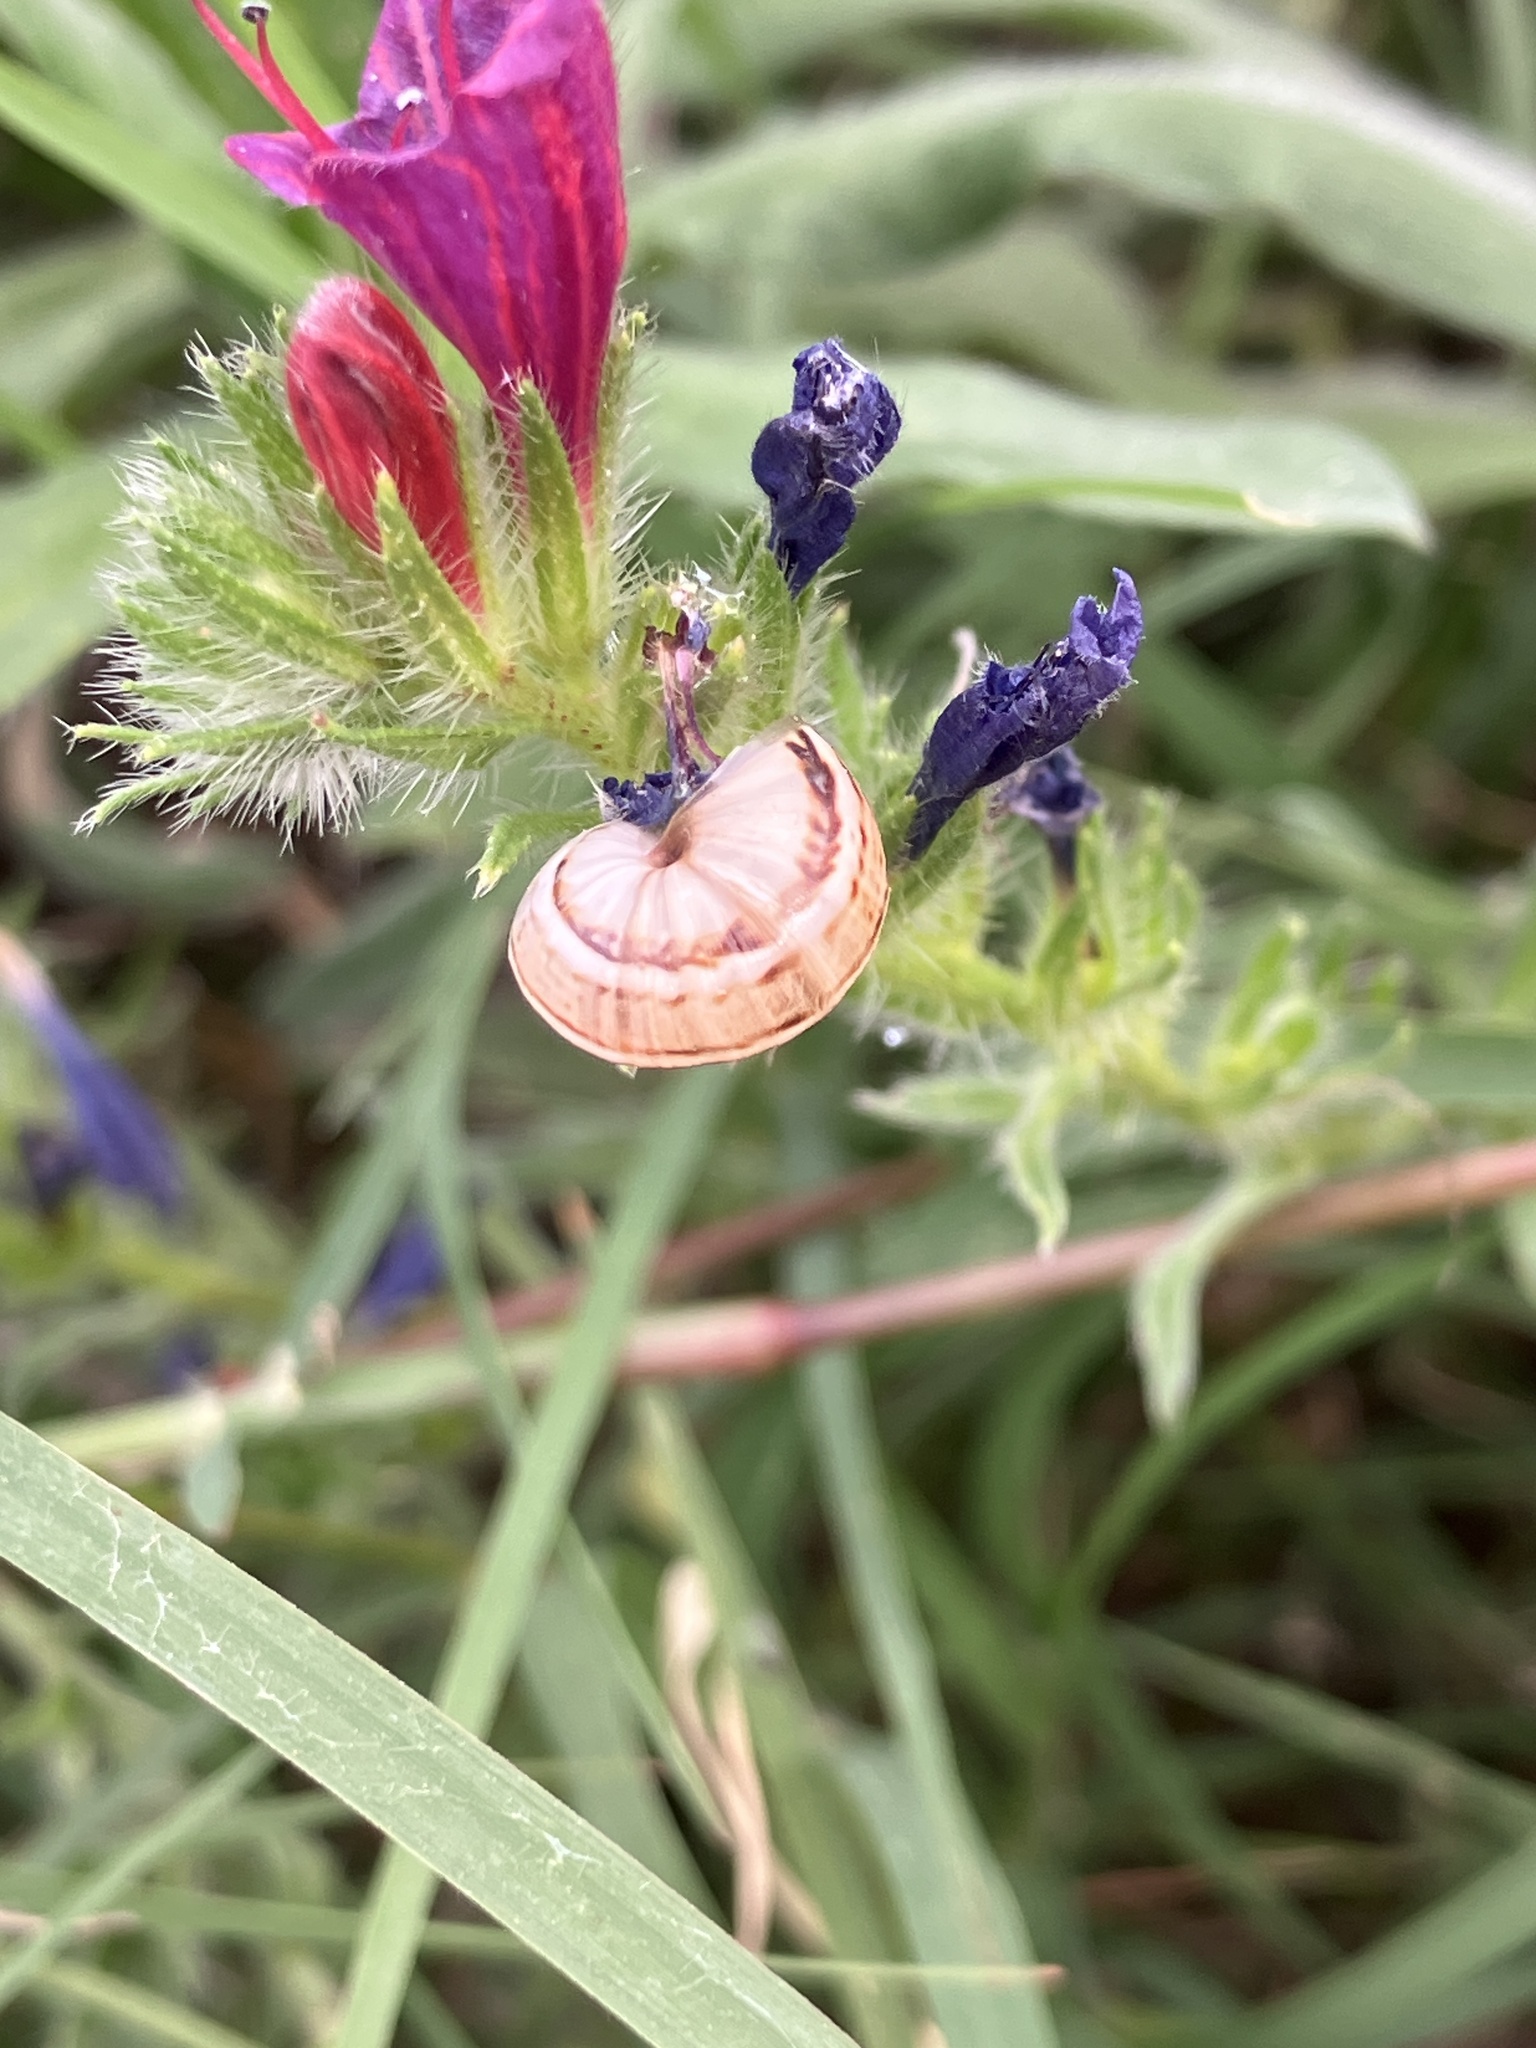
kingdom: Animalia
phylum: Mollusca
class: Gastropoda
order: Stylommatophora
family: Helicidae
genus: Theba
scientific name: Theba pisana
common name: White snail
